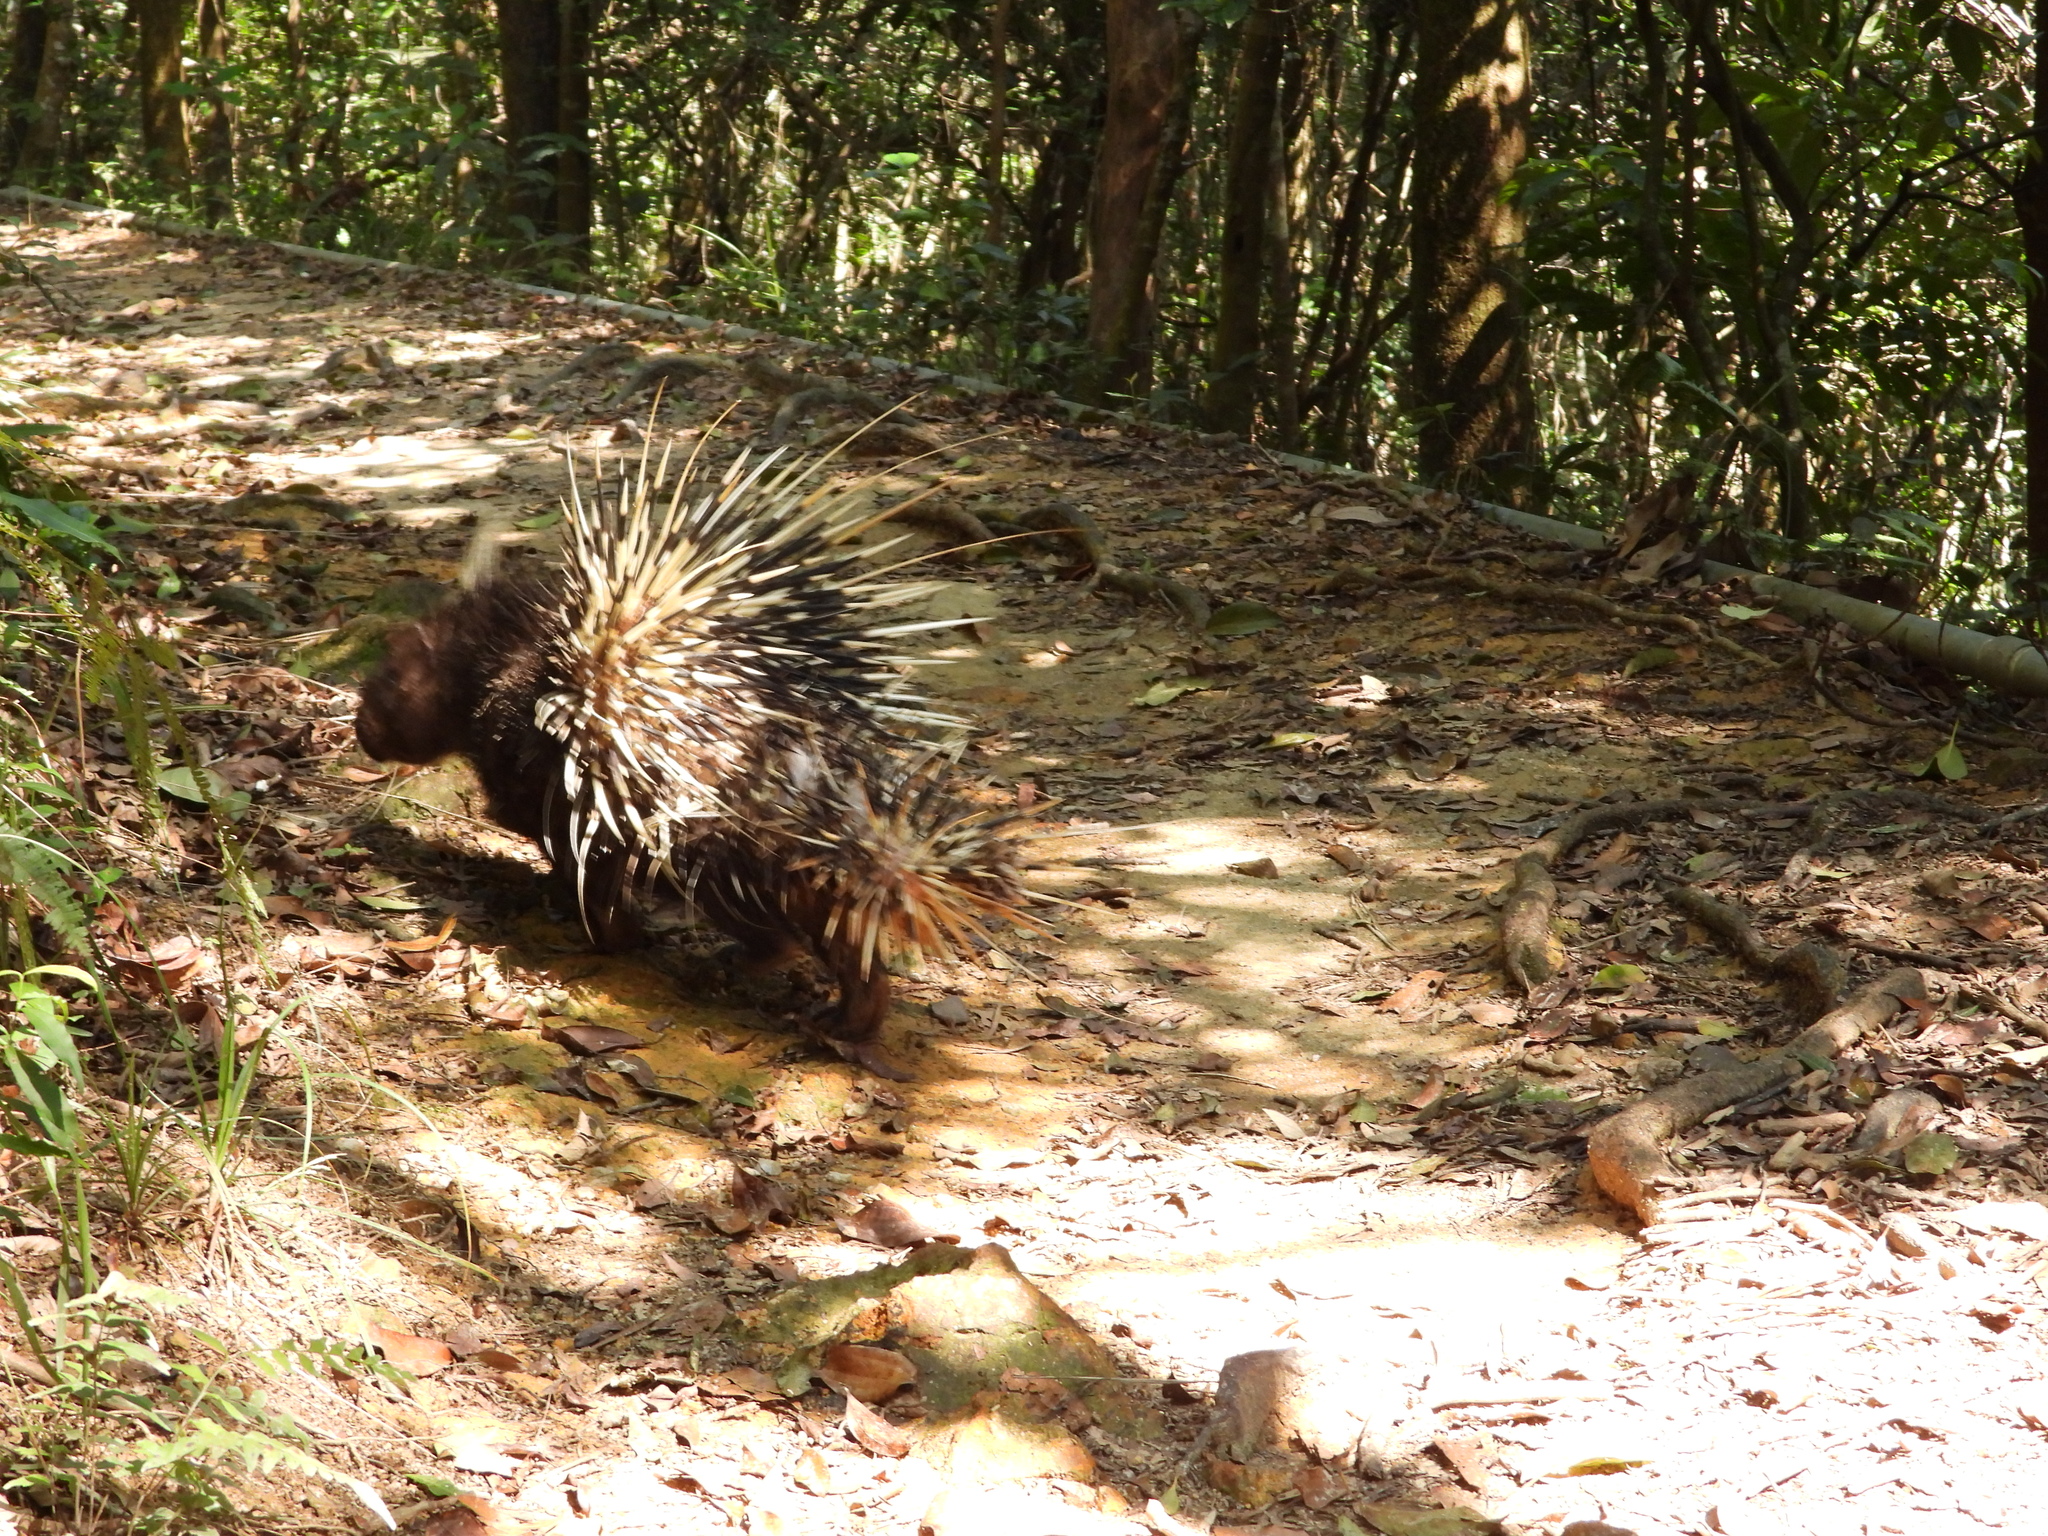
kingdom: Animalia
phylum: Chordata
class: Mammalia
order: Rodentia
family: Hystricidae
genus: Hystrix
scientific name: Hystrix brachyura
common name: Malayan porcupine
